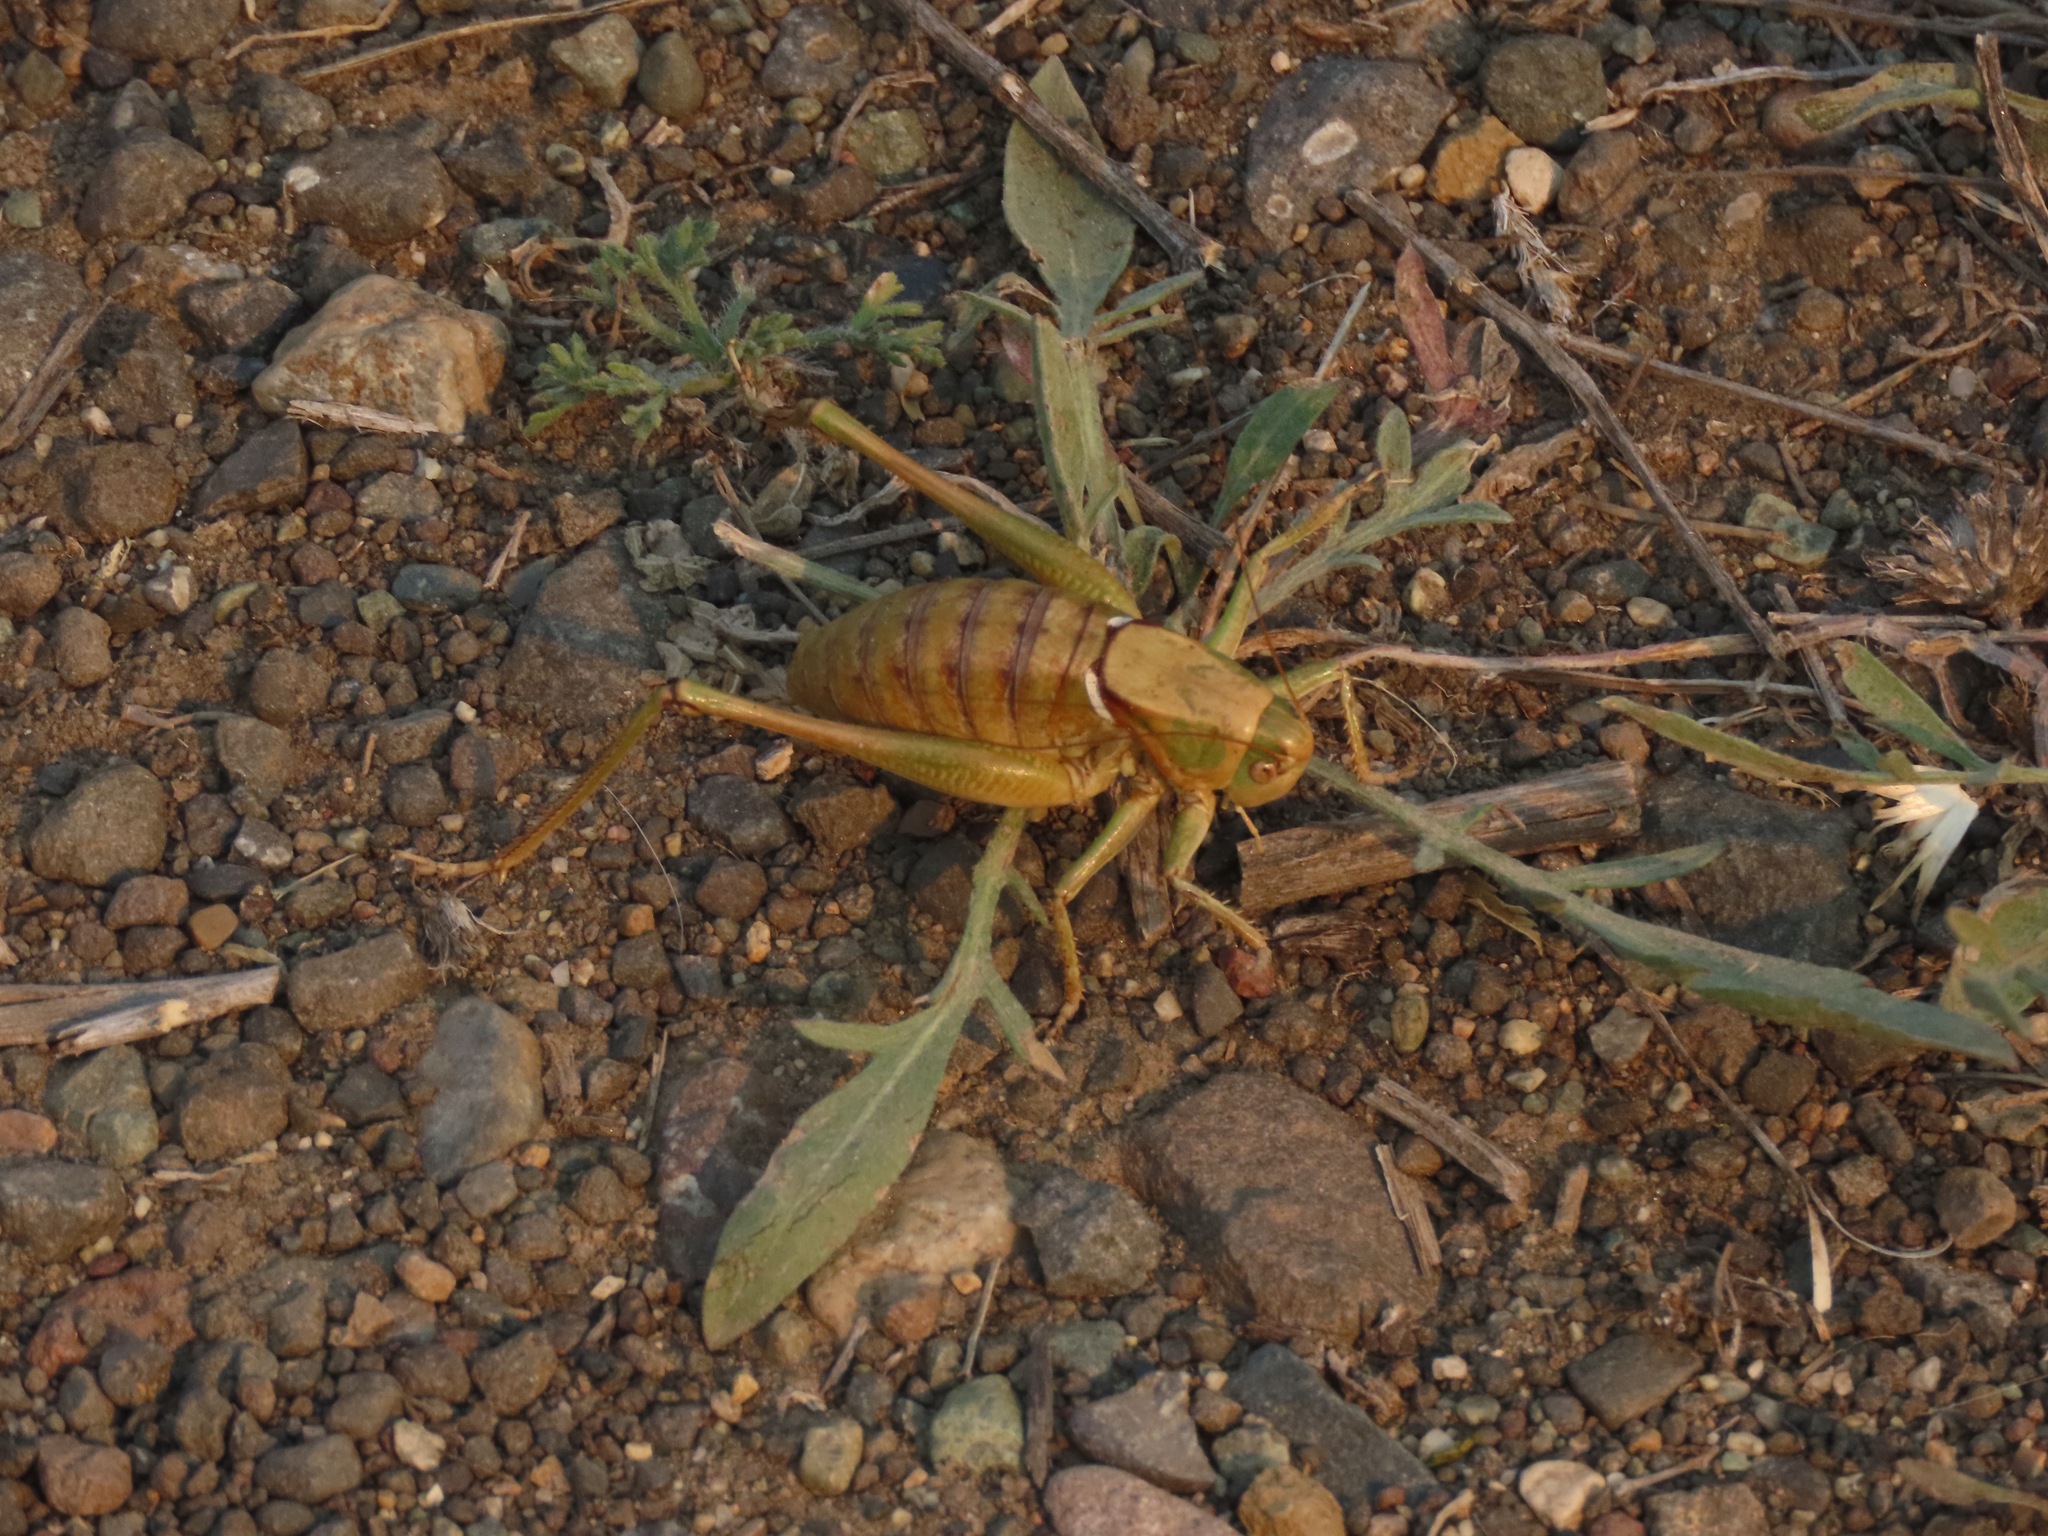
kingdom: Animalia
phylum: Arthropoda
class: Insecta
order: Orthoptera
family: Tettigoniidae
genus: Anabrus
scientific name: Anabrus longipes
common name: Long-legged anabrus
